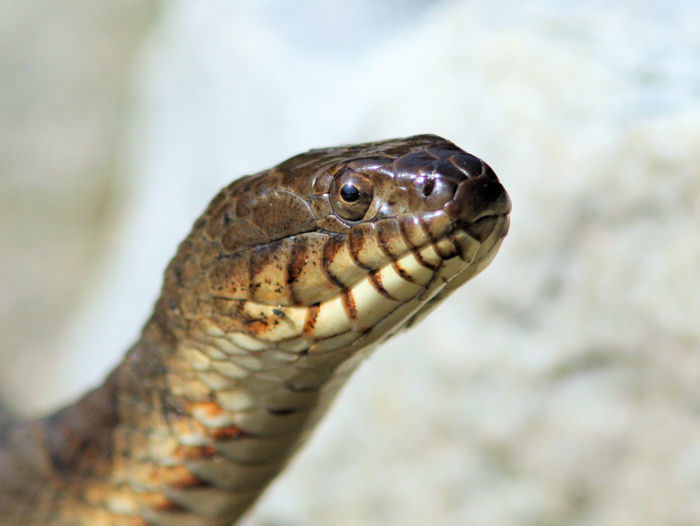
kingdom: Animalia
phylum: Chordata
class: Squamata
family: Colubridae
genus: Nerodia
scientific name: Nerodia sipedon
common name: Northern water snake
